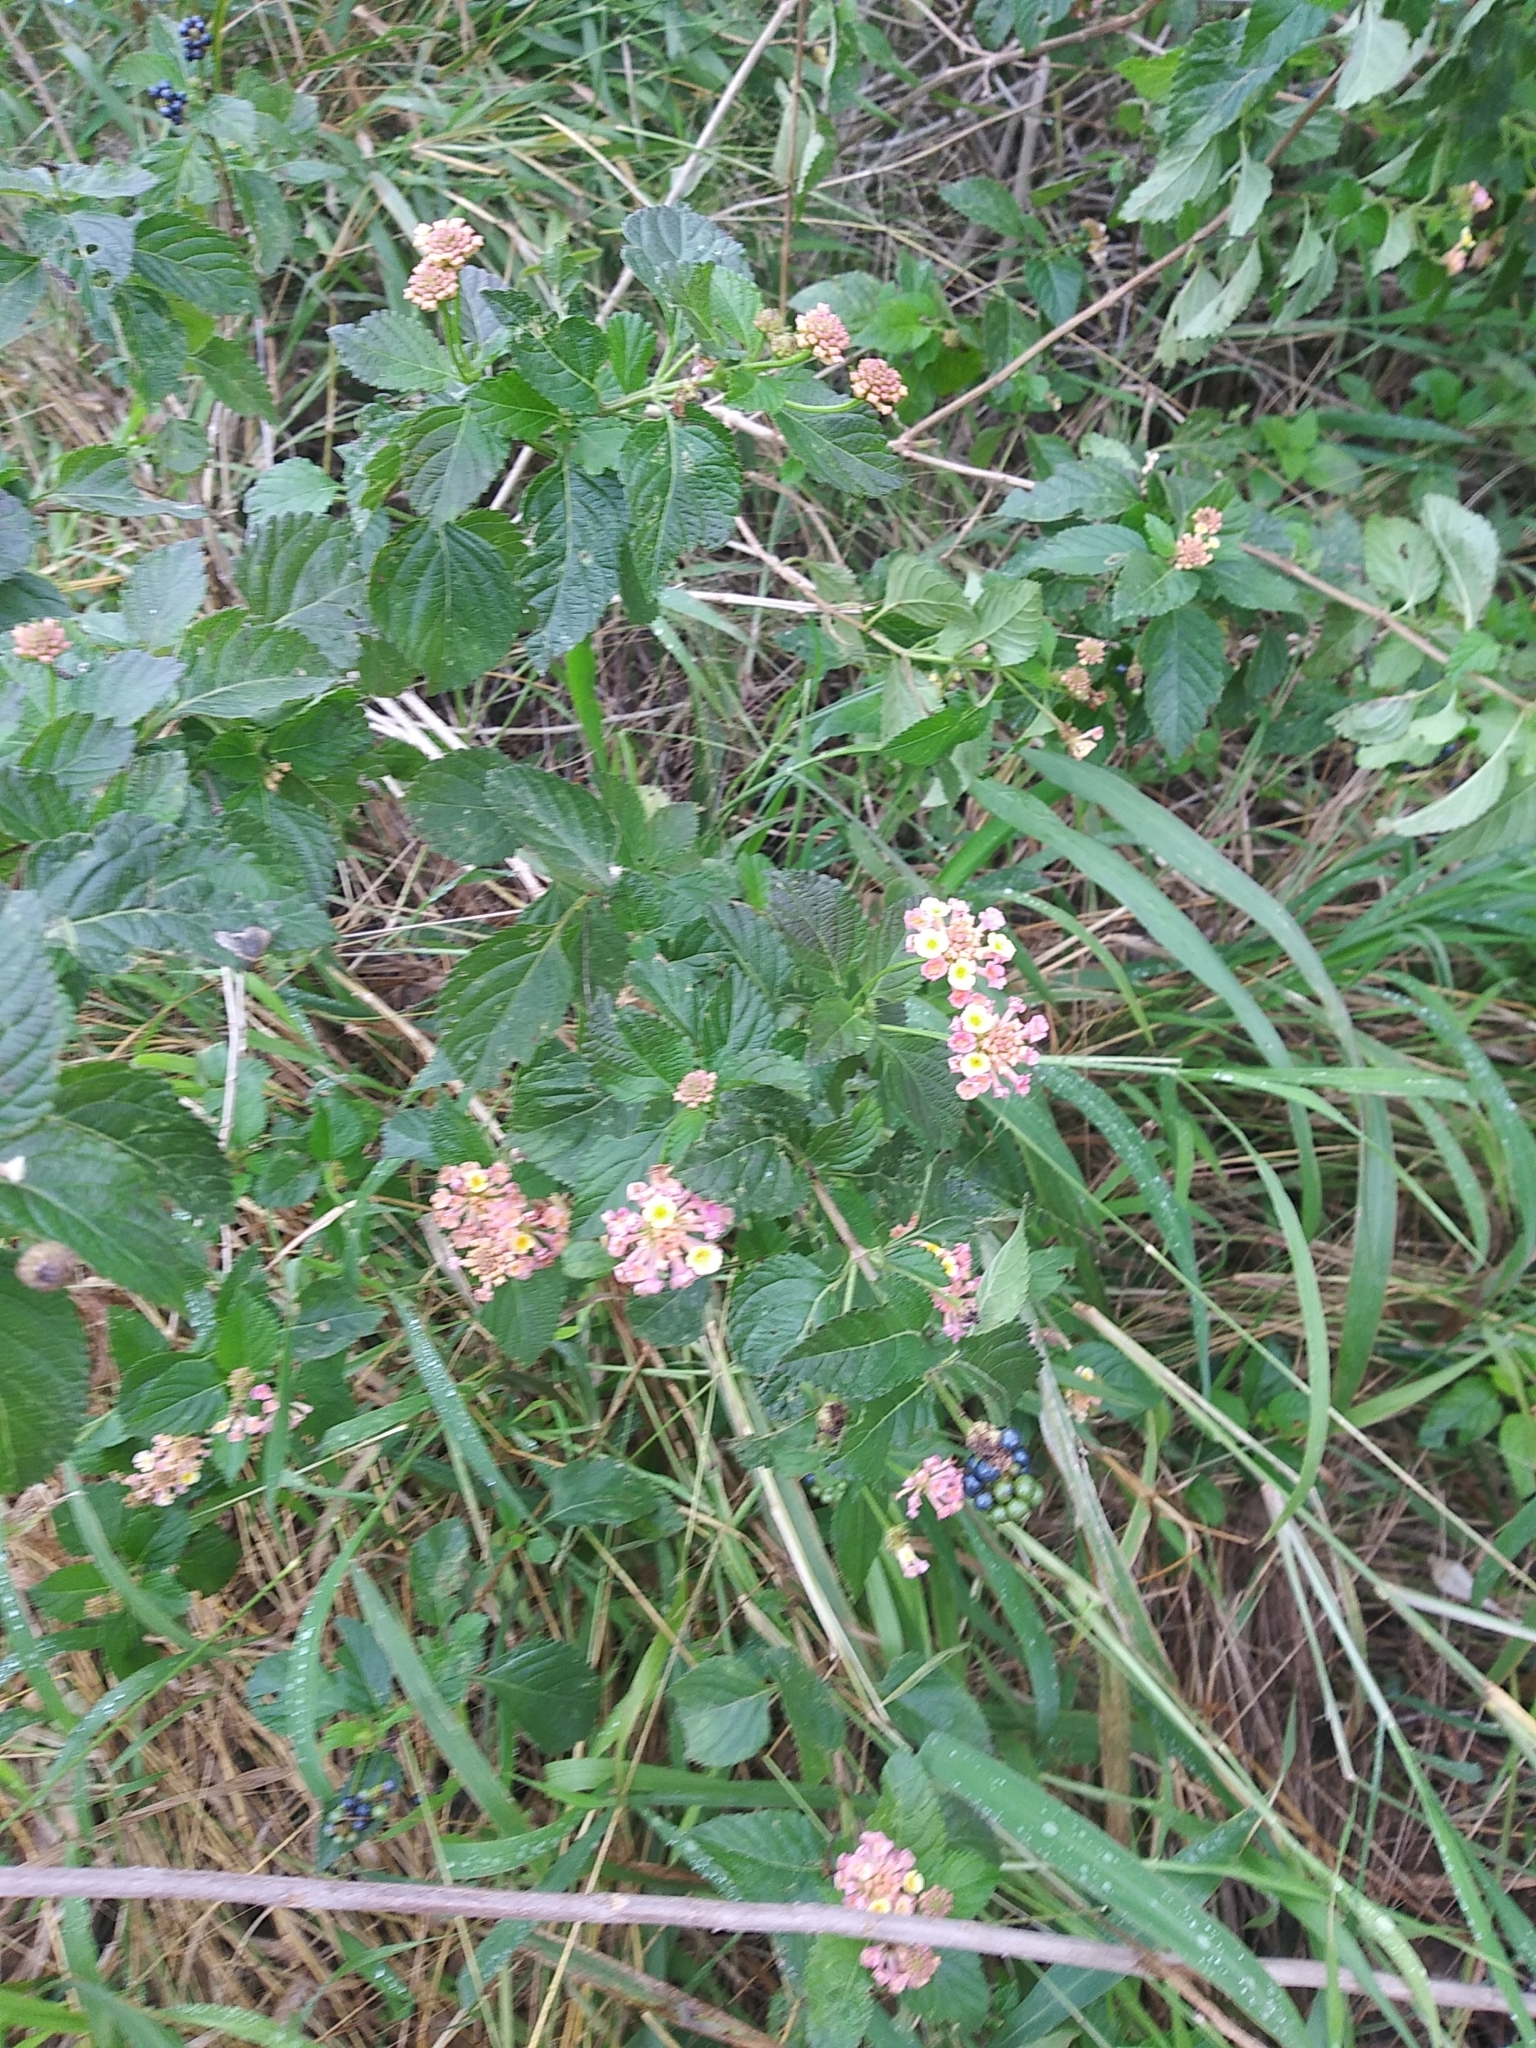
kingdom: Plantae
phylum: Tracheophyta
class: Magnoliopsida
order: Lamiales
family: Verbenaceae
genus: Lantana
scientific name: Lantana strigocamara
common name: Lantana
